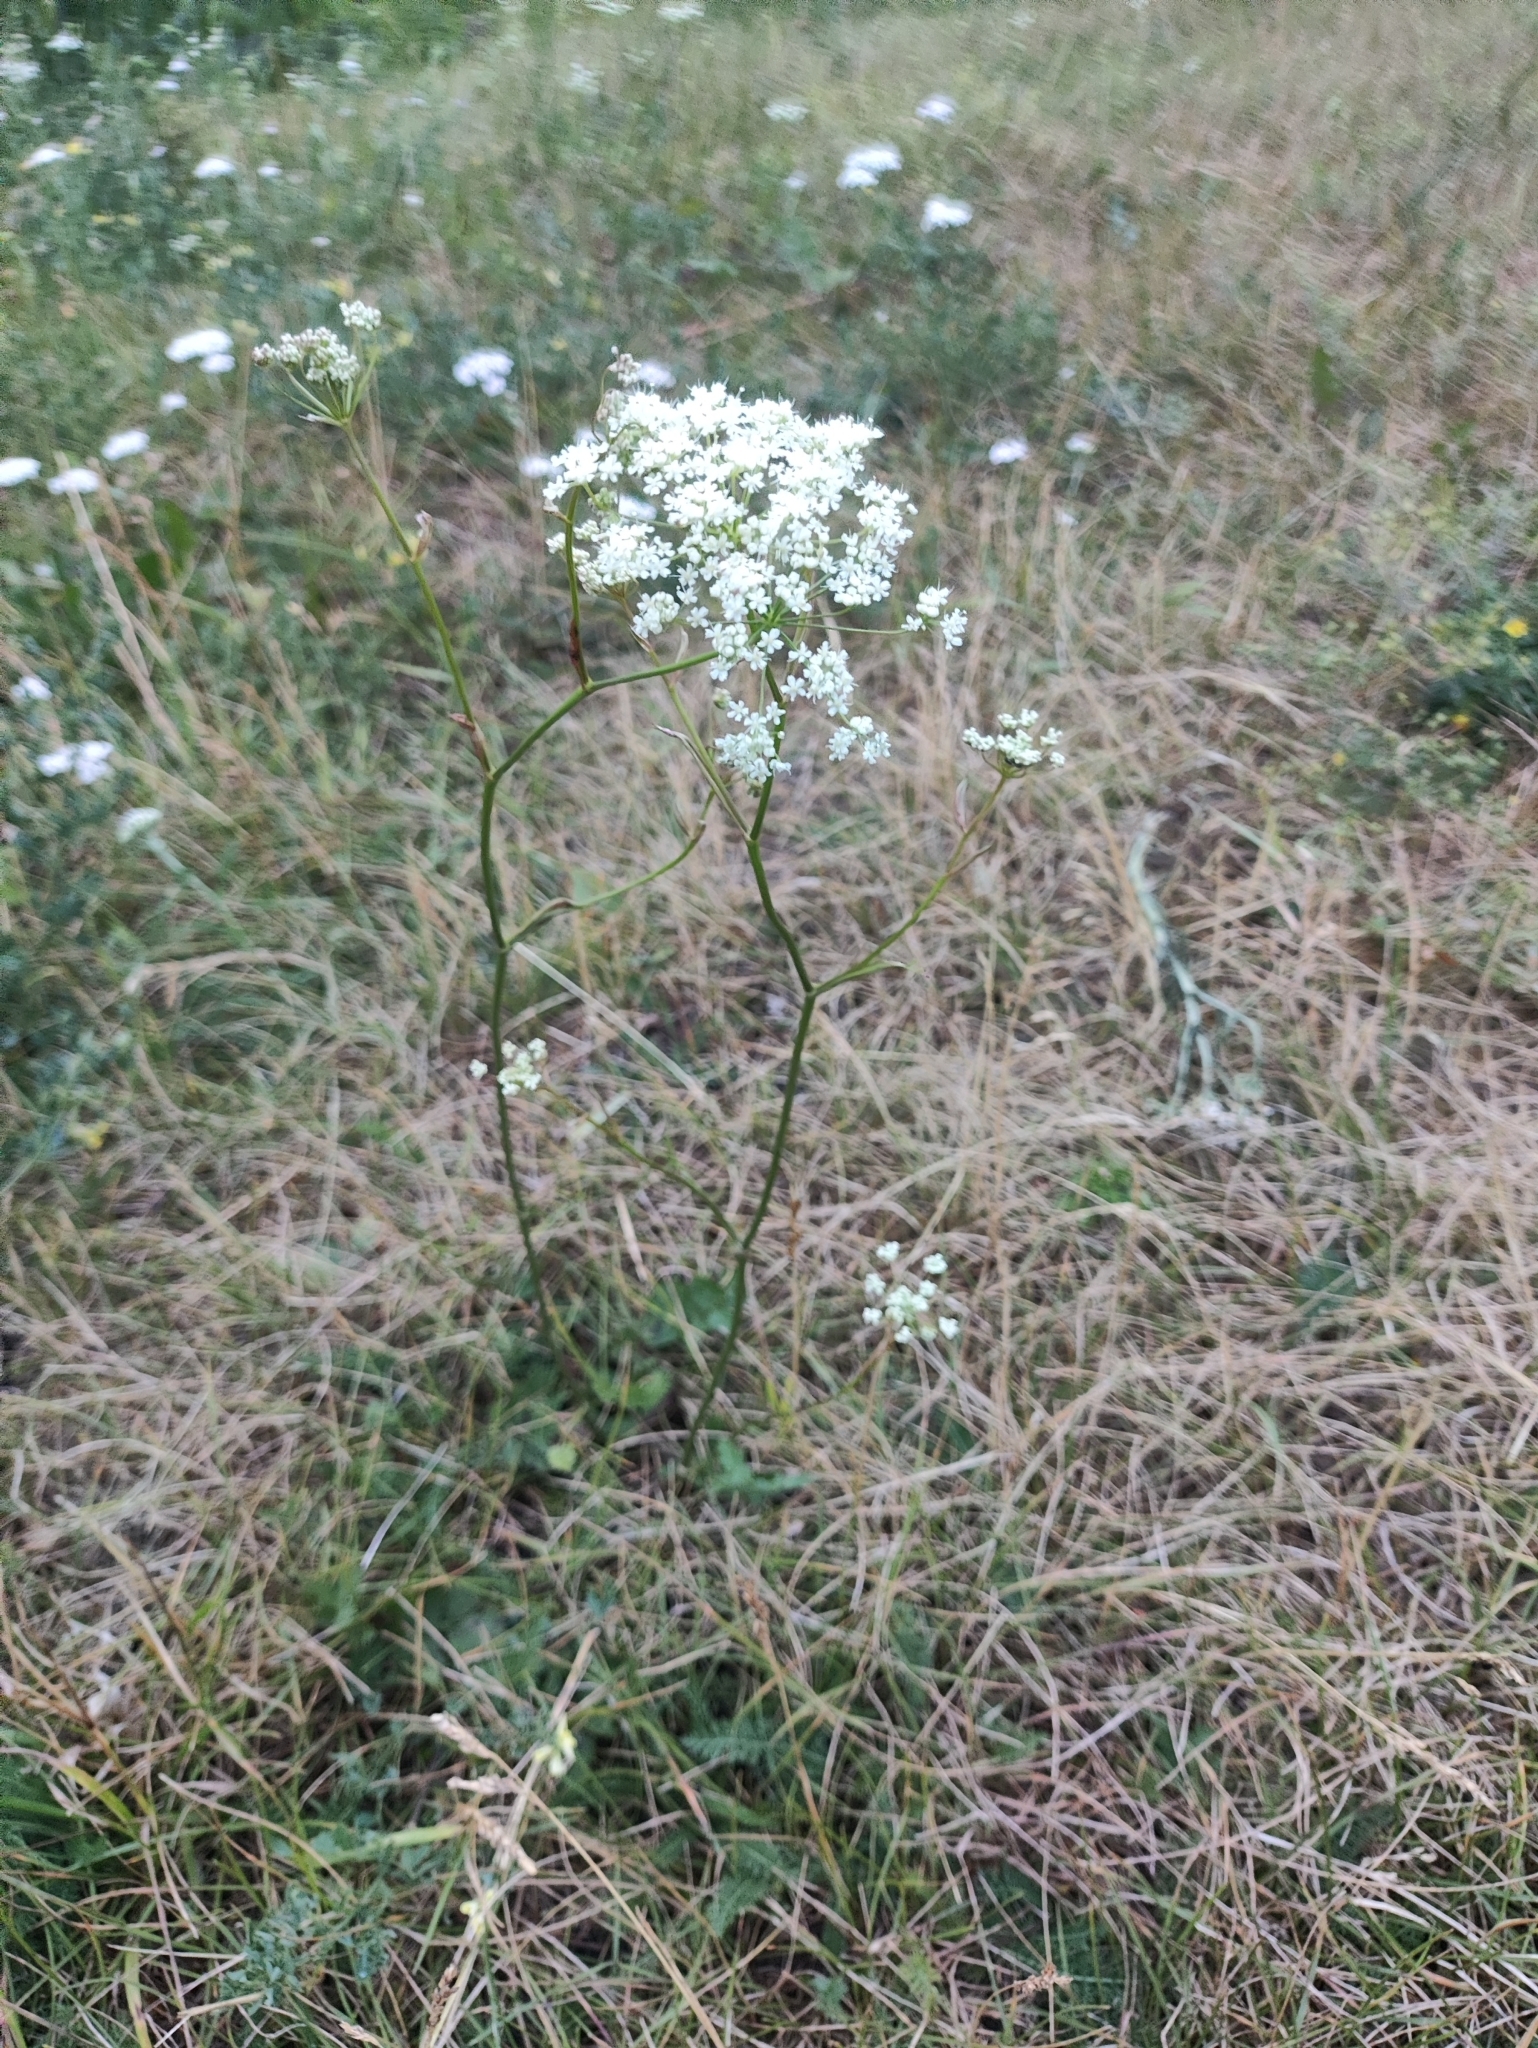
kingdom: Plantae
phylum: Tracheophyta
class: Magnoliopsida
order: Apiales
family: Apiaceae
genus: Pimpinella
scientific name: Pimpinella saxifraga
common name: Burnet-saxifrage
